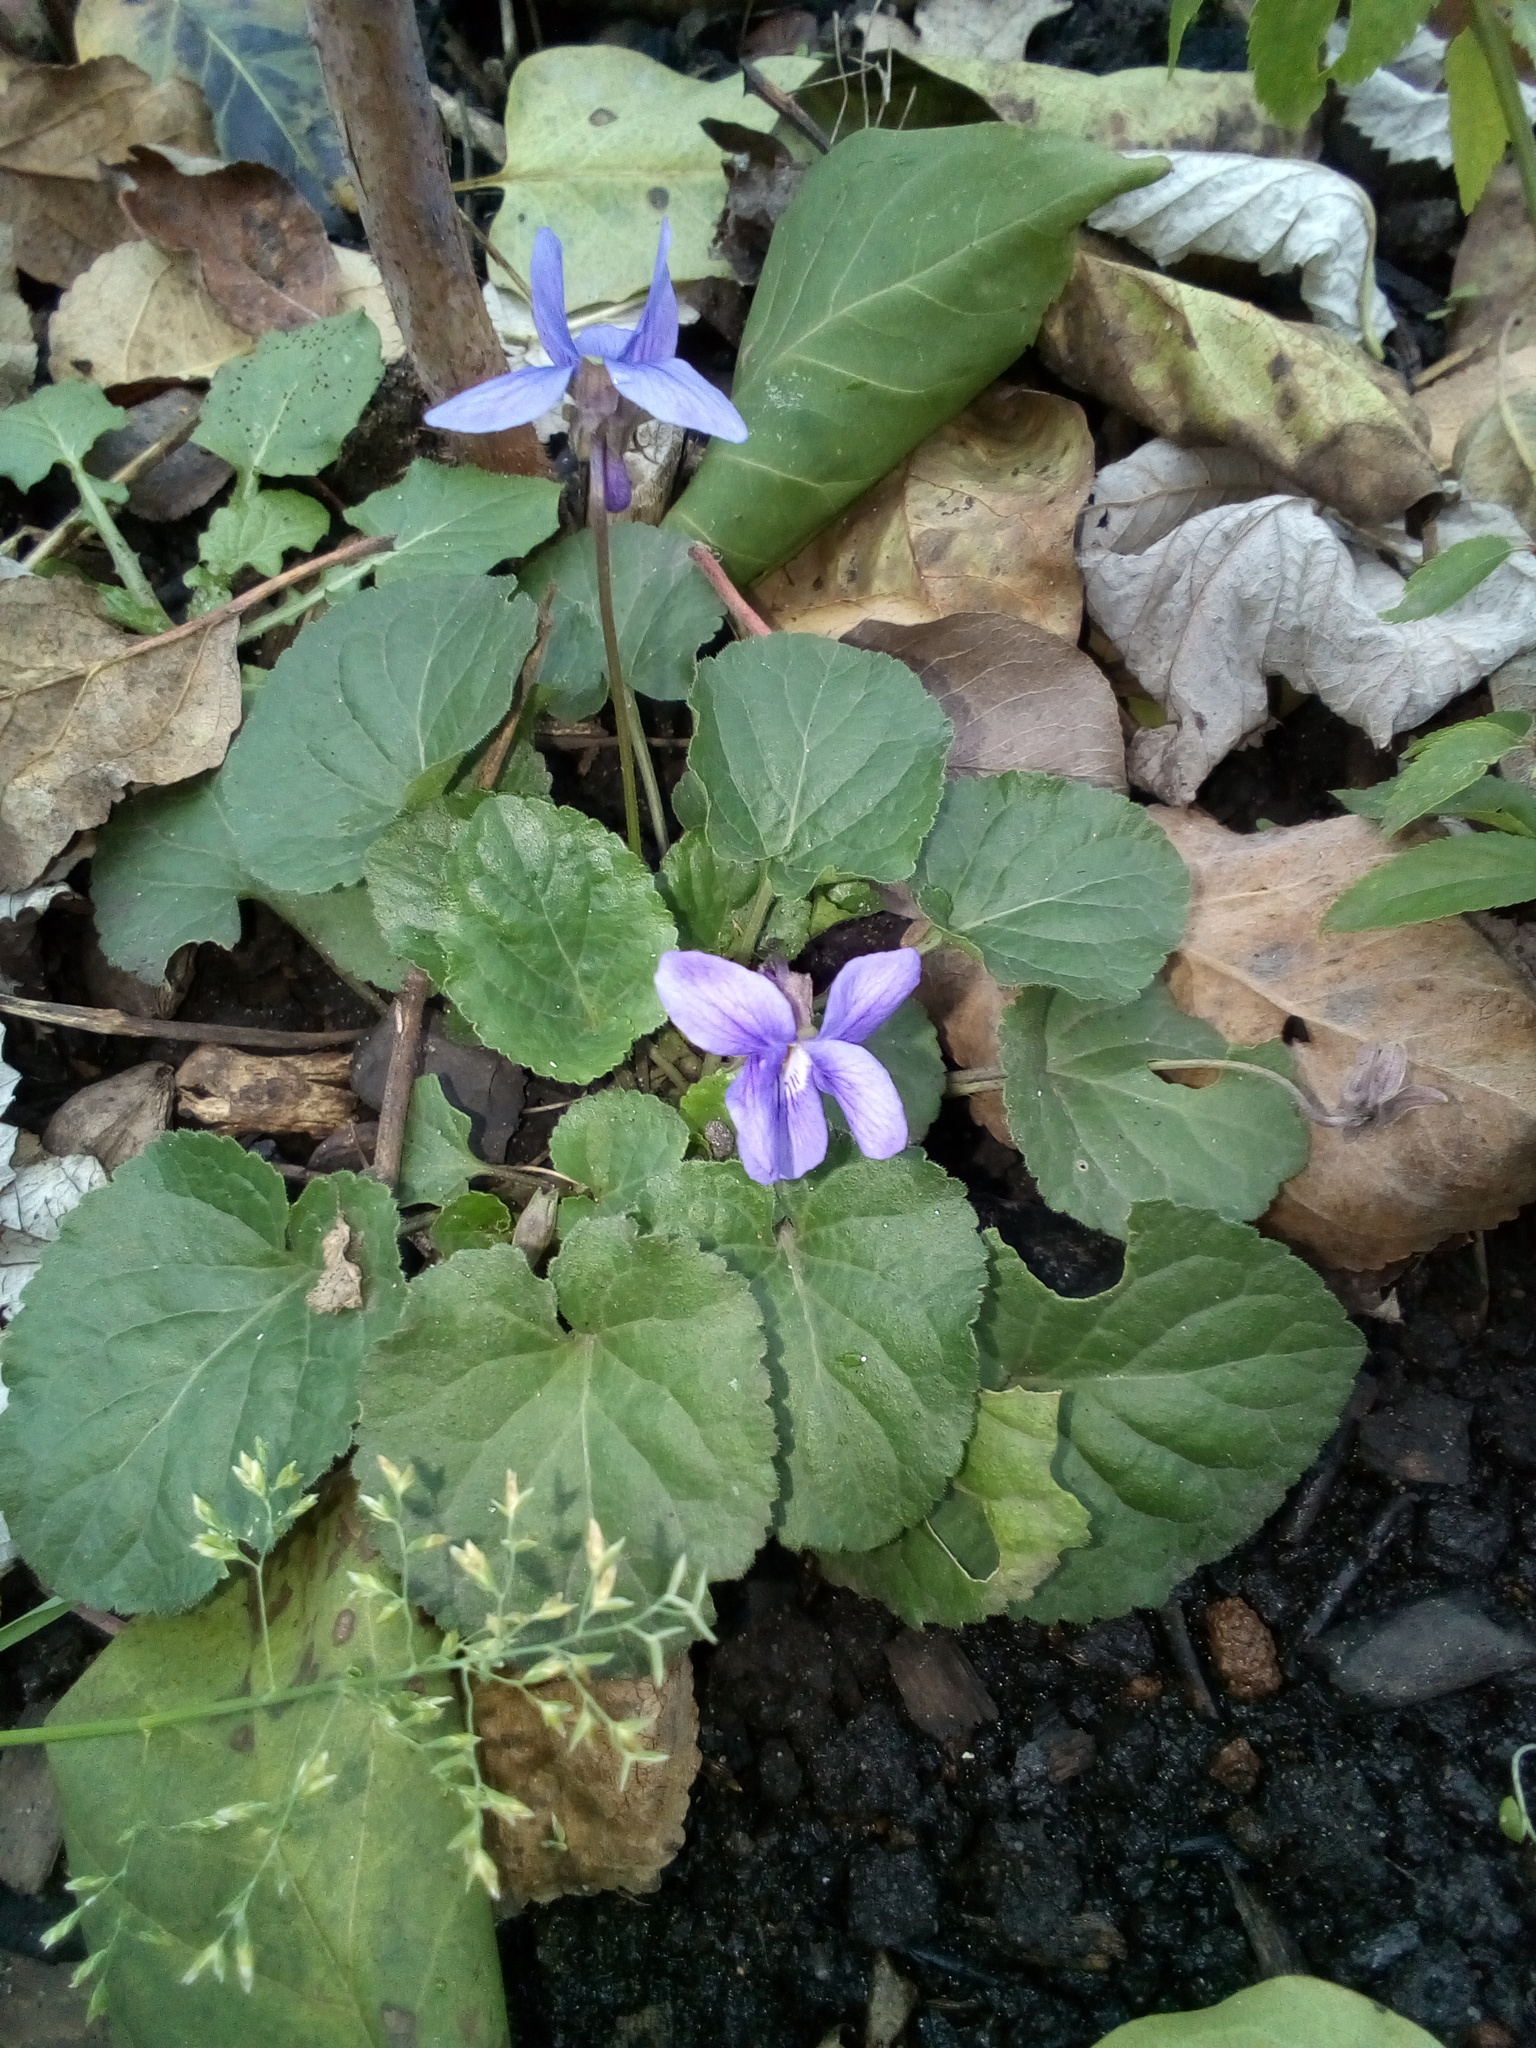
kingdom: Plantae
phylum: Tracheophyta
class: Magnoliopsida
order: Malpighiales
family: Violaceae
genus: Viola
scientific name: Viola odorata
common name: Sweet violet
